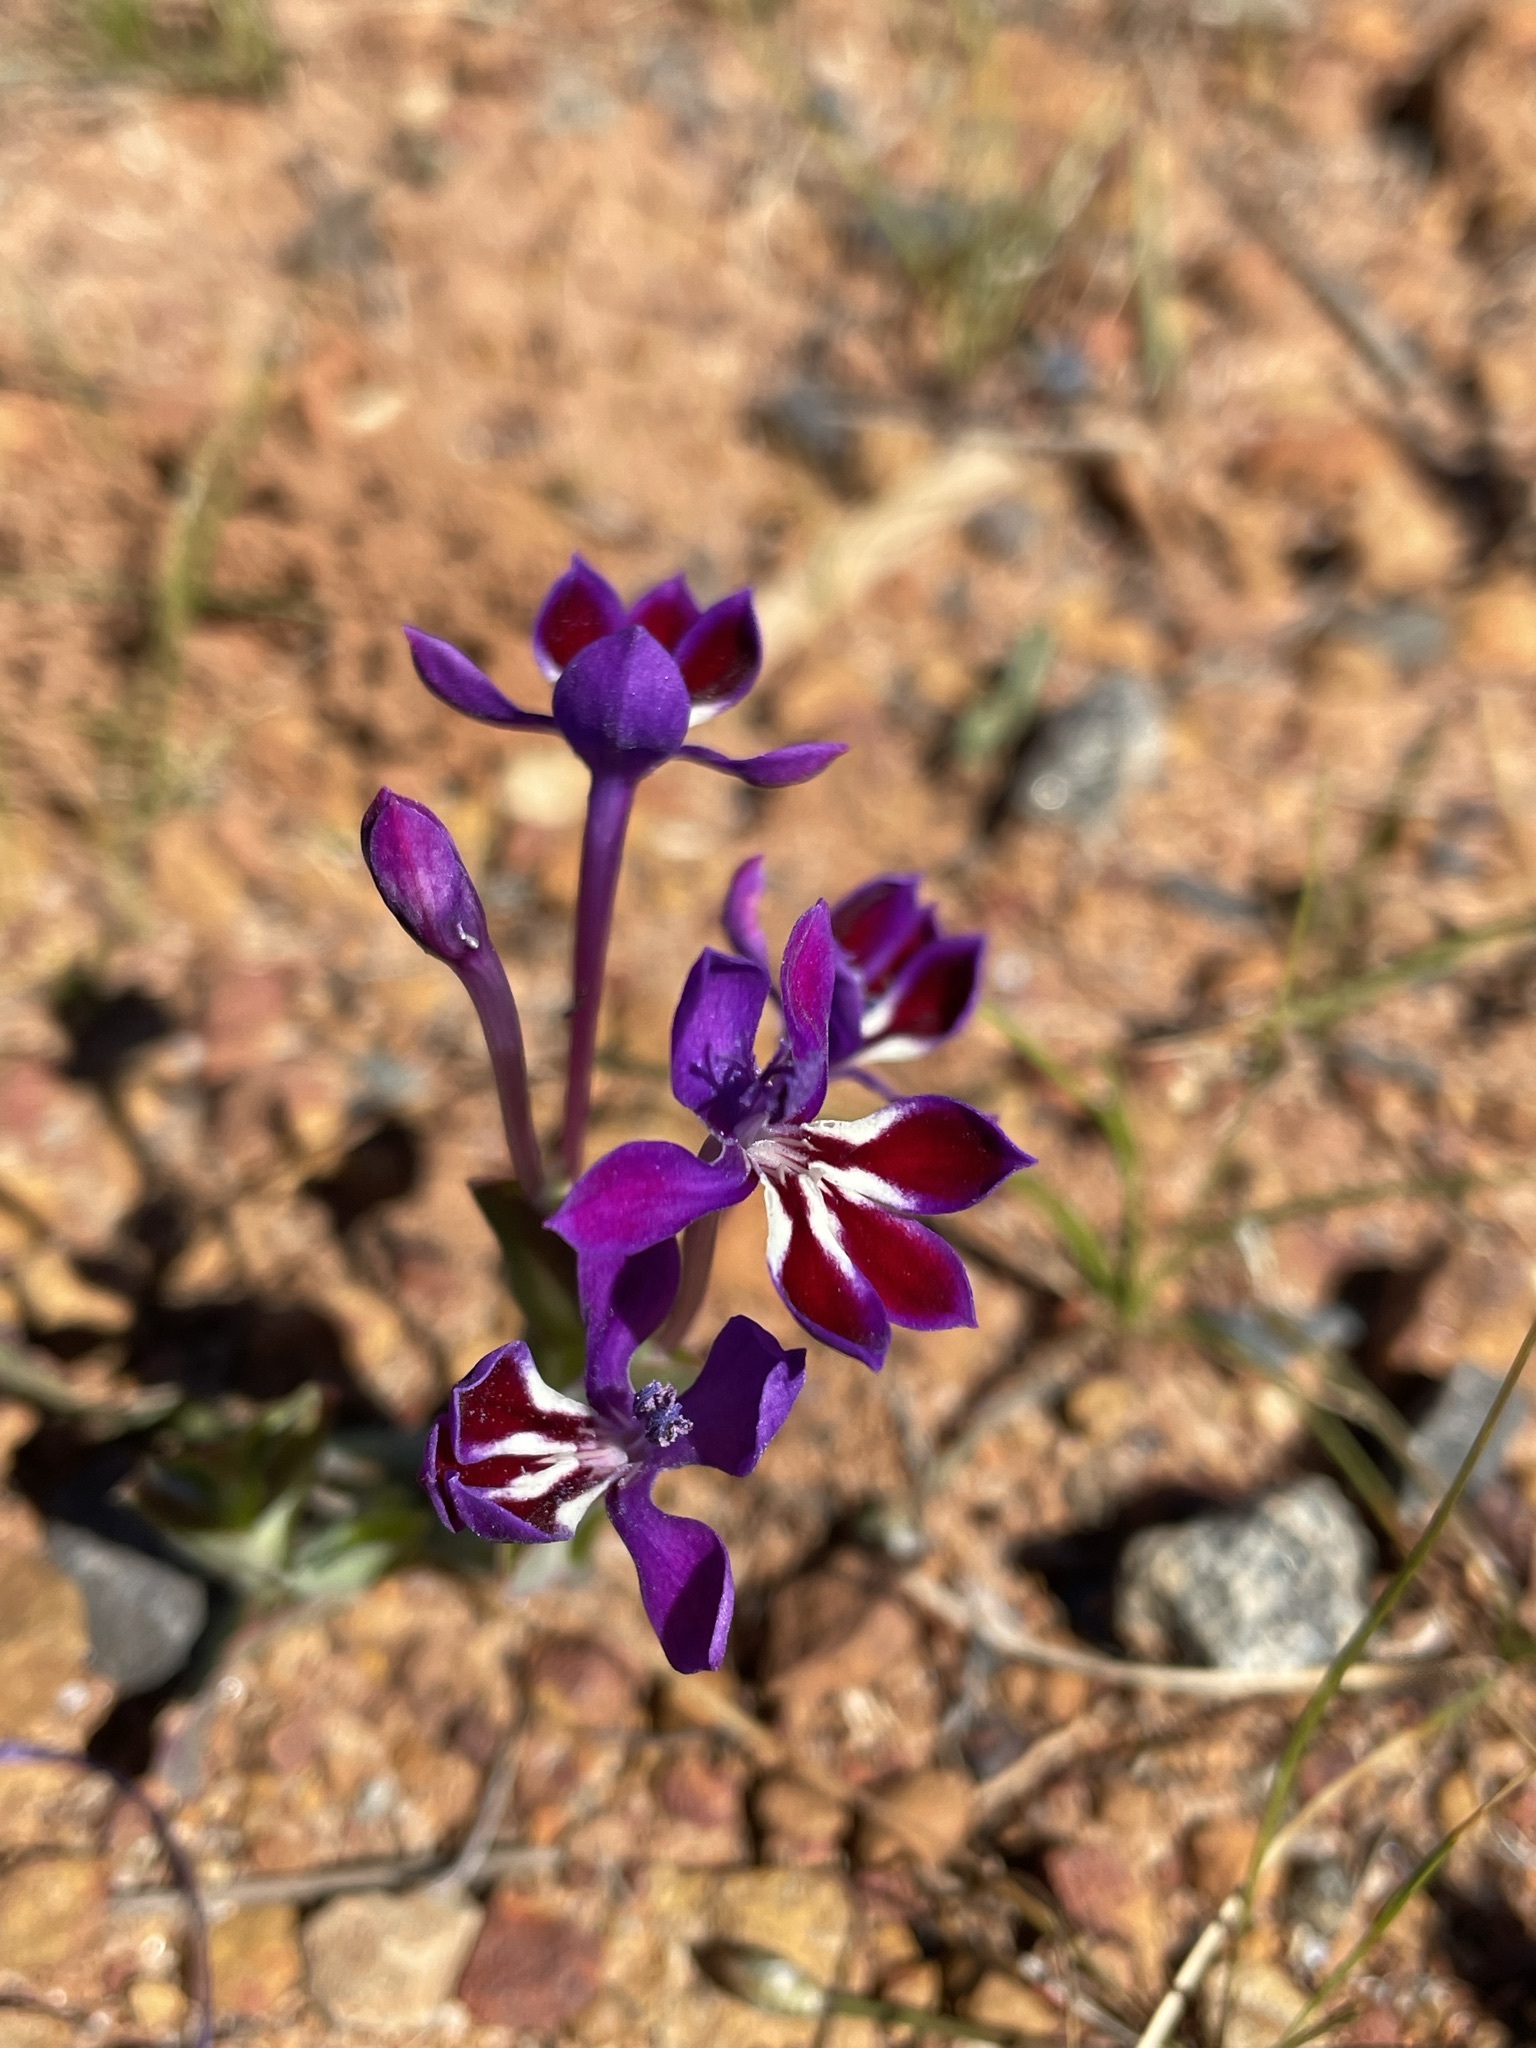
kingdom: Plantae
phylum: Tracheophyta
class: Liliopsida
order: Asparagales
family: Iridaceae
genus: Lapeirousia
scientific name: Lapeirousia jacquinii
